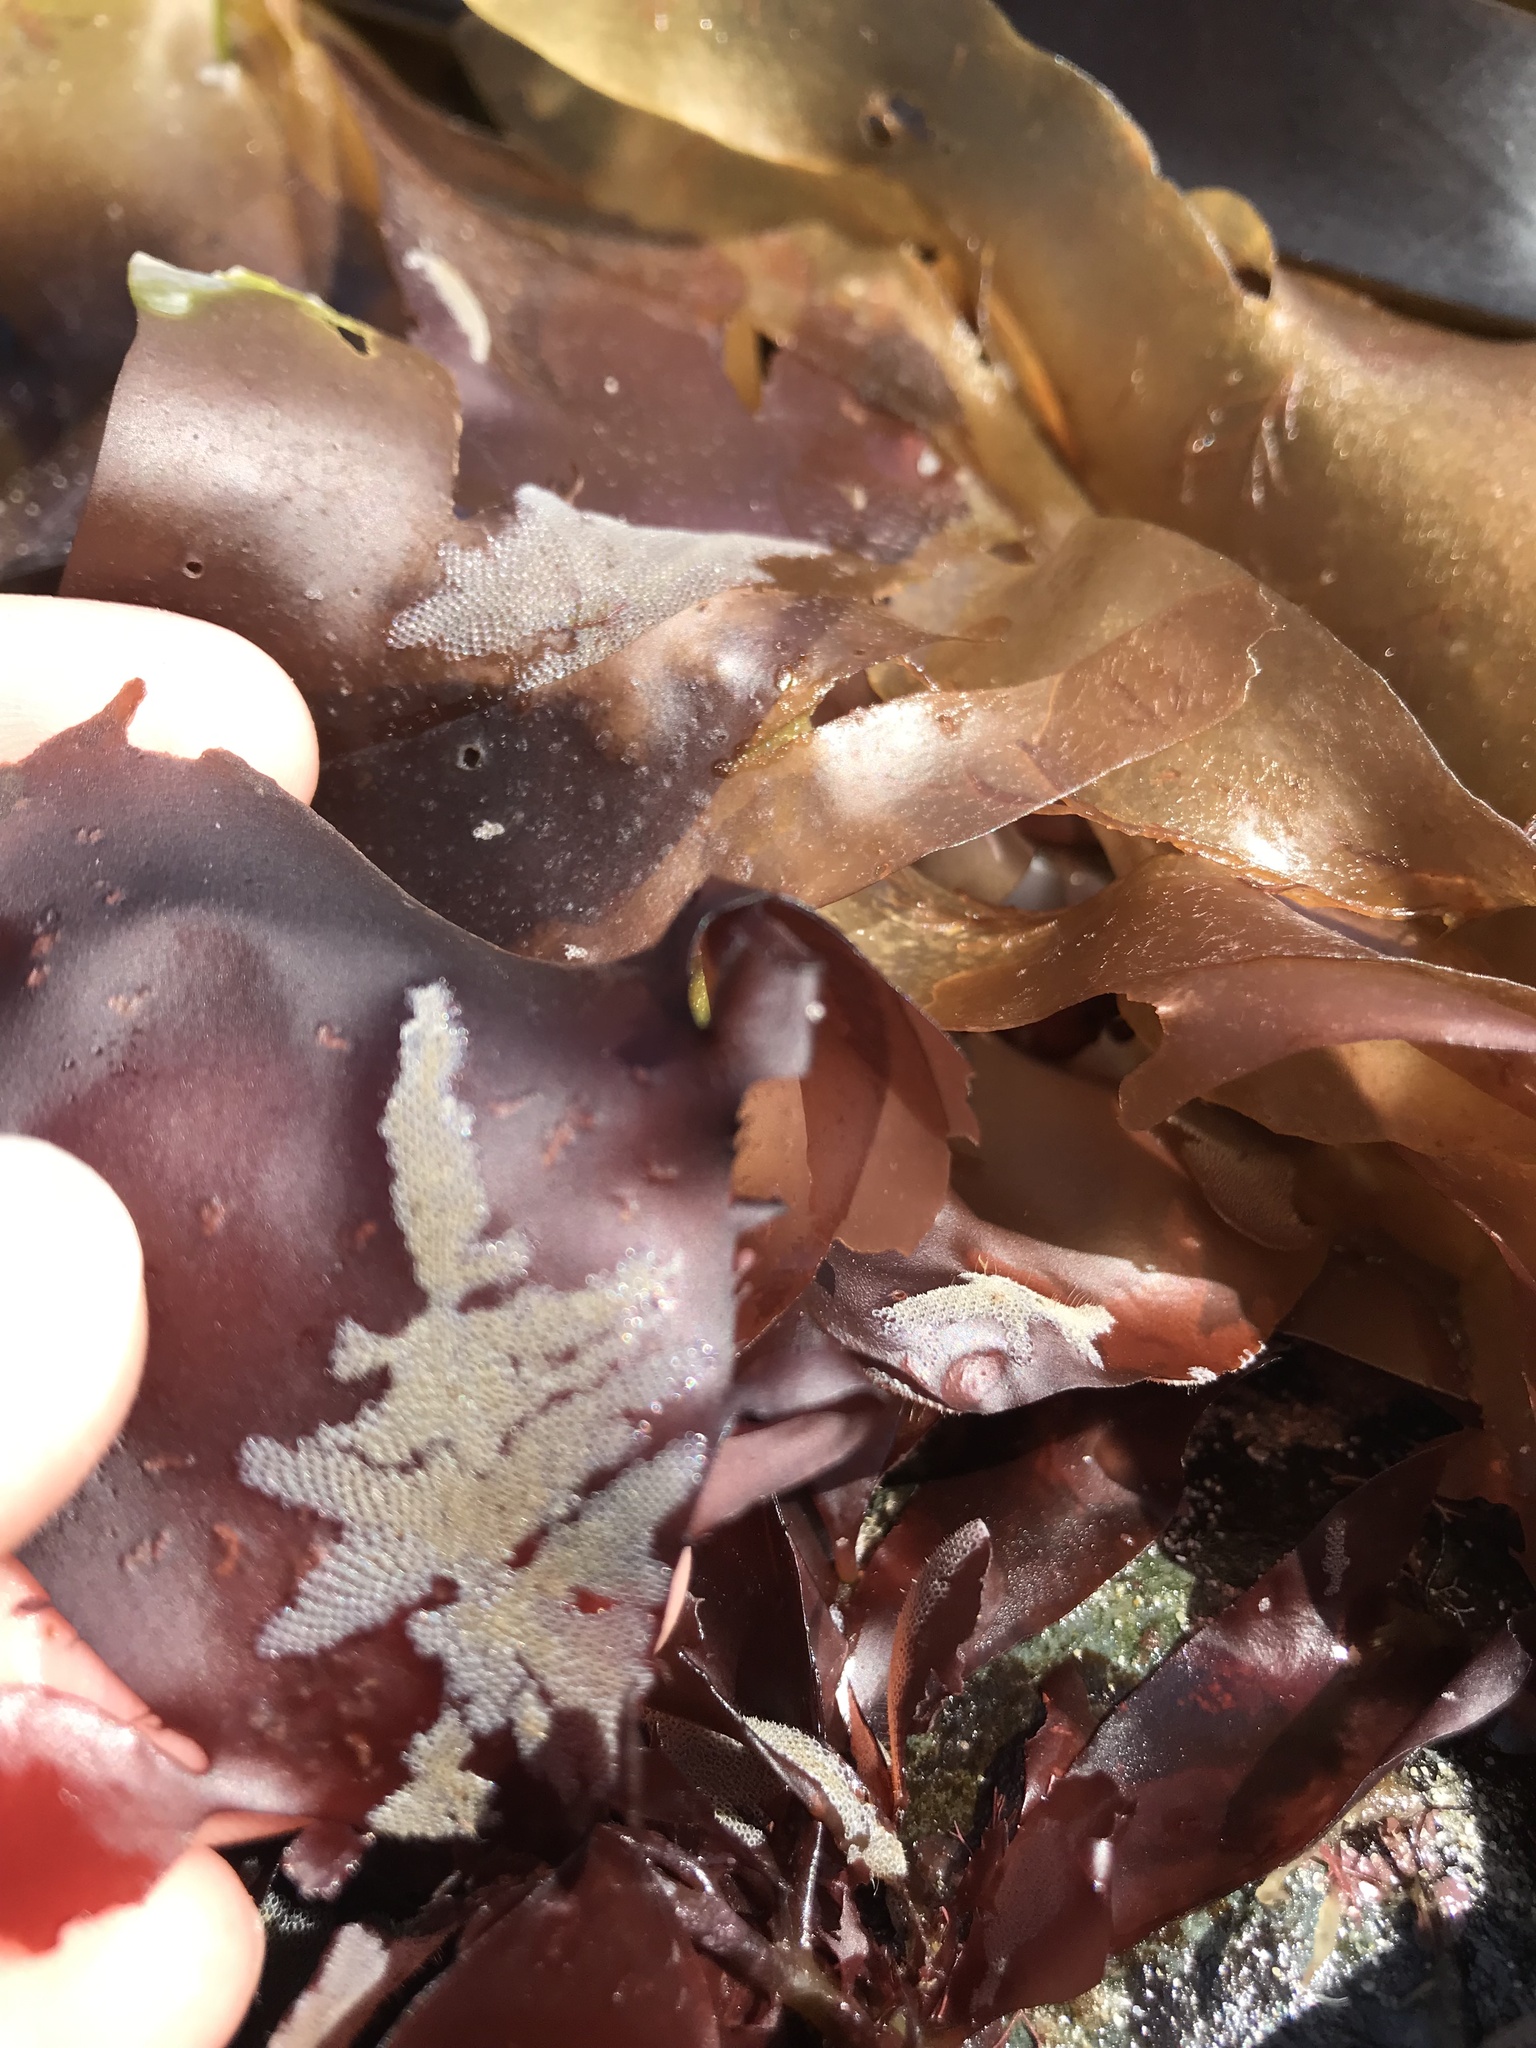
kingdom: Animalia
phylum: Bryozoa
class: Gymnolaemata
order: Cheilostomatida
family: Electridae
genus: Electra
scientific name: Electra pilosa
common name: Hairy sea-mat
